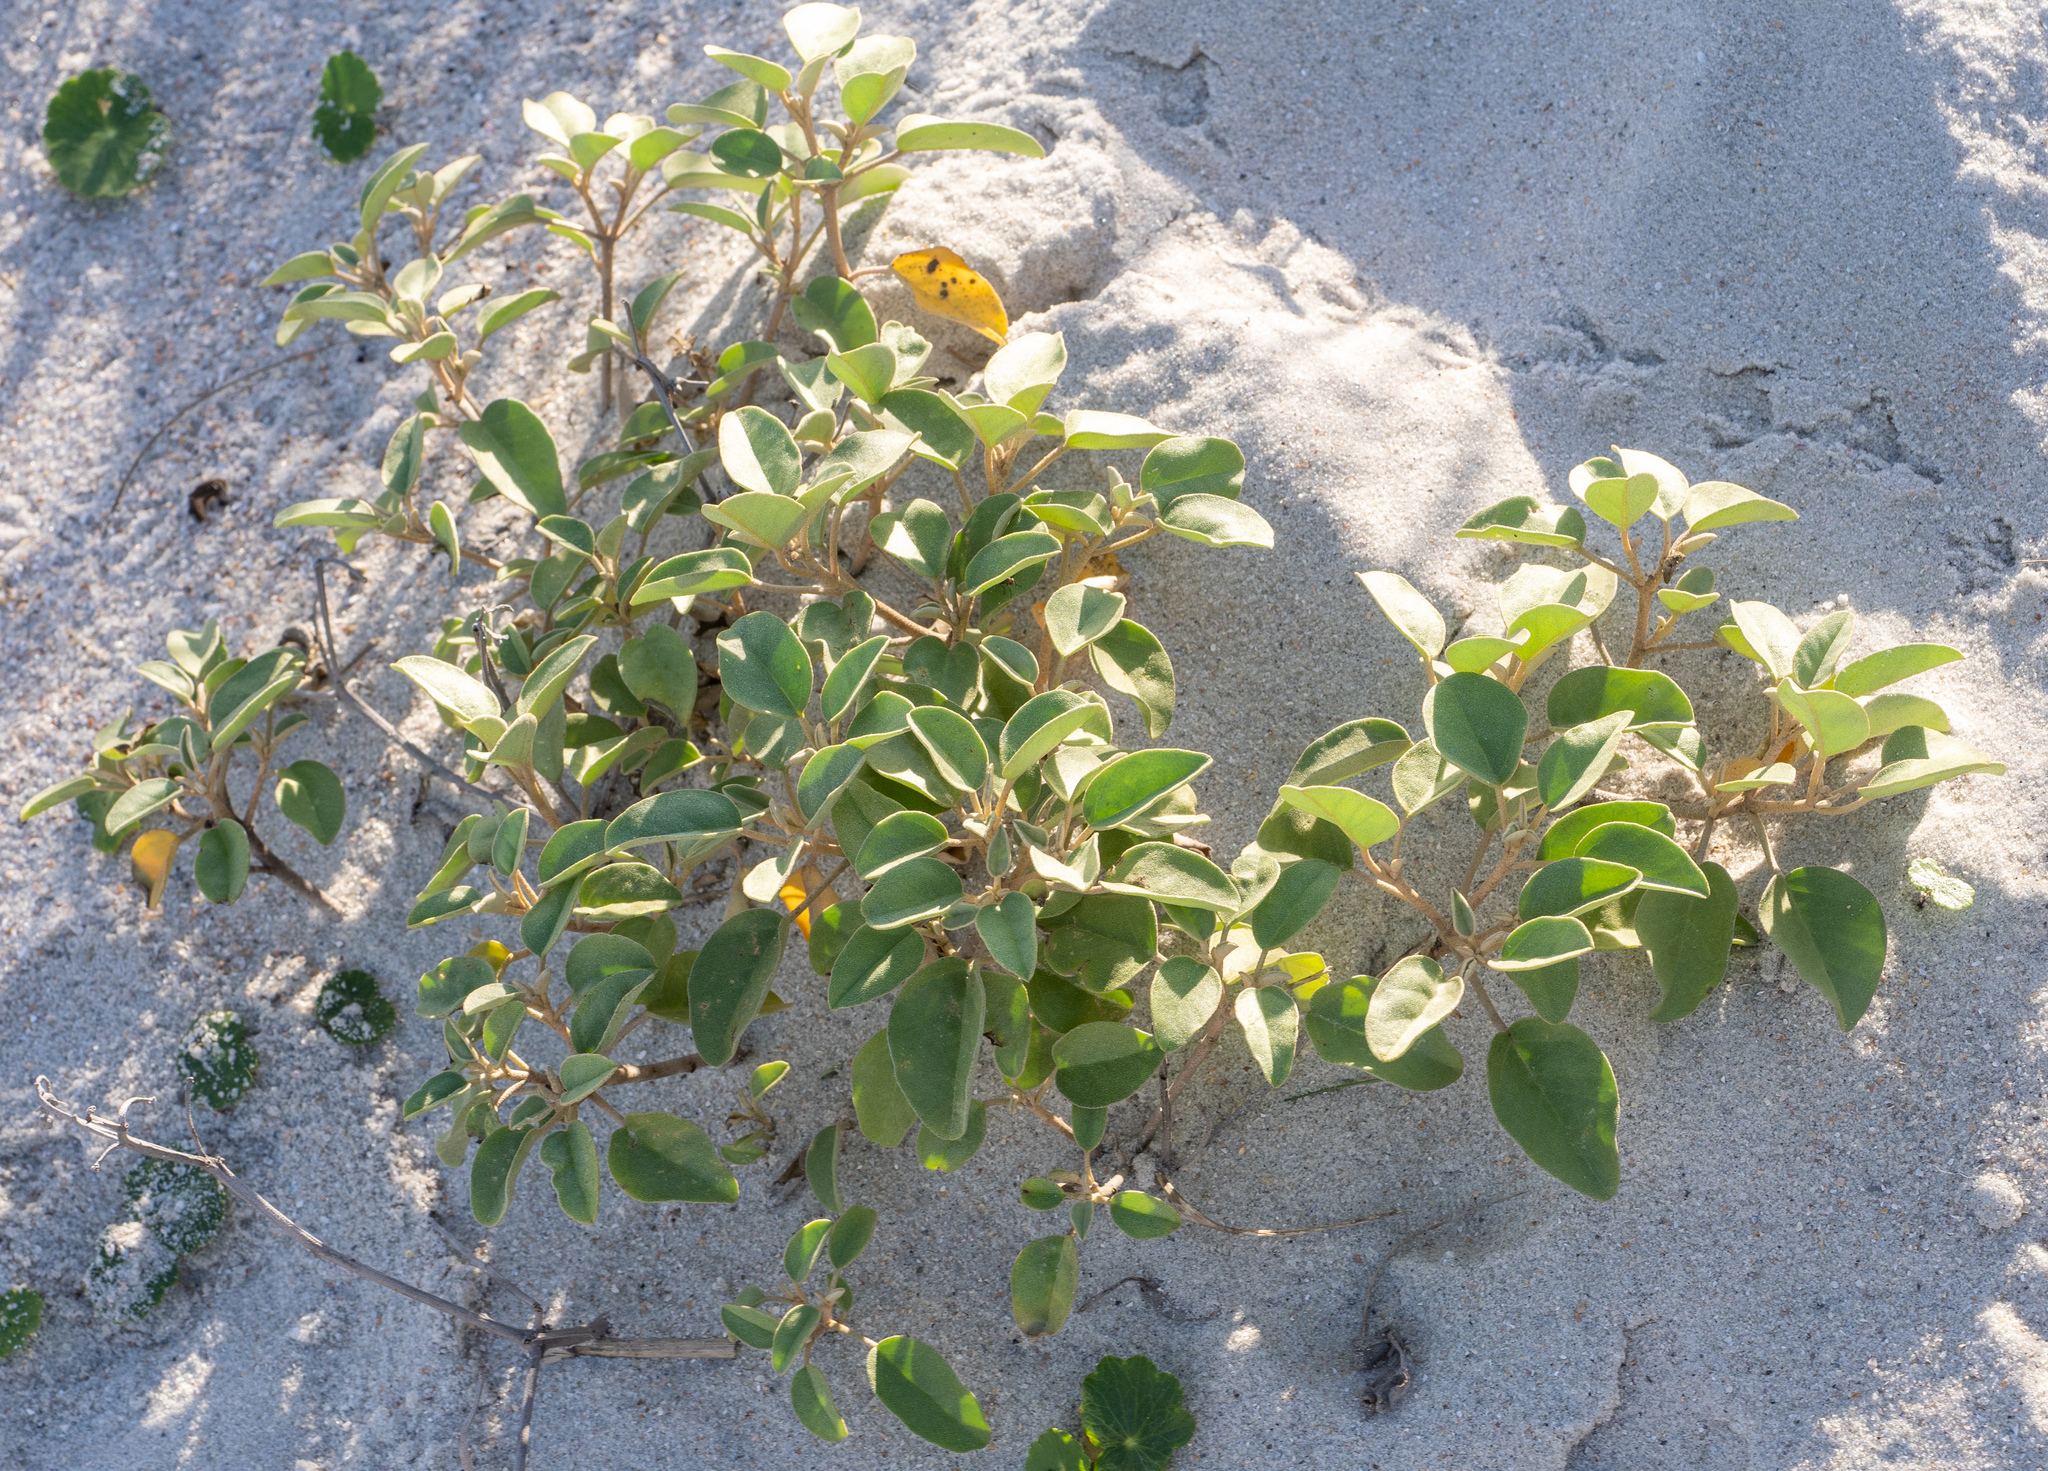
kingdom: Plantae
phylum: Tracheophyta
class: Magnoliopsida
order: Malpighiales
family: Euphorbiaceae
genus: Croton
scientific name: Croton punctatus
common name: Beach-tea
